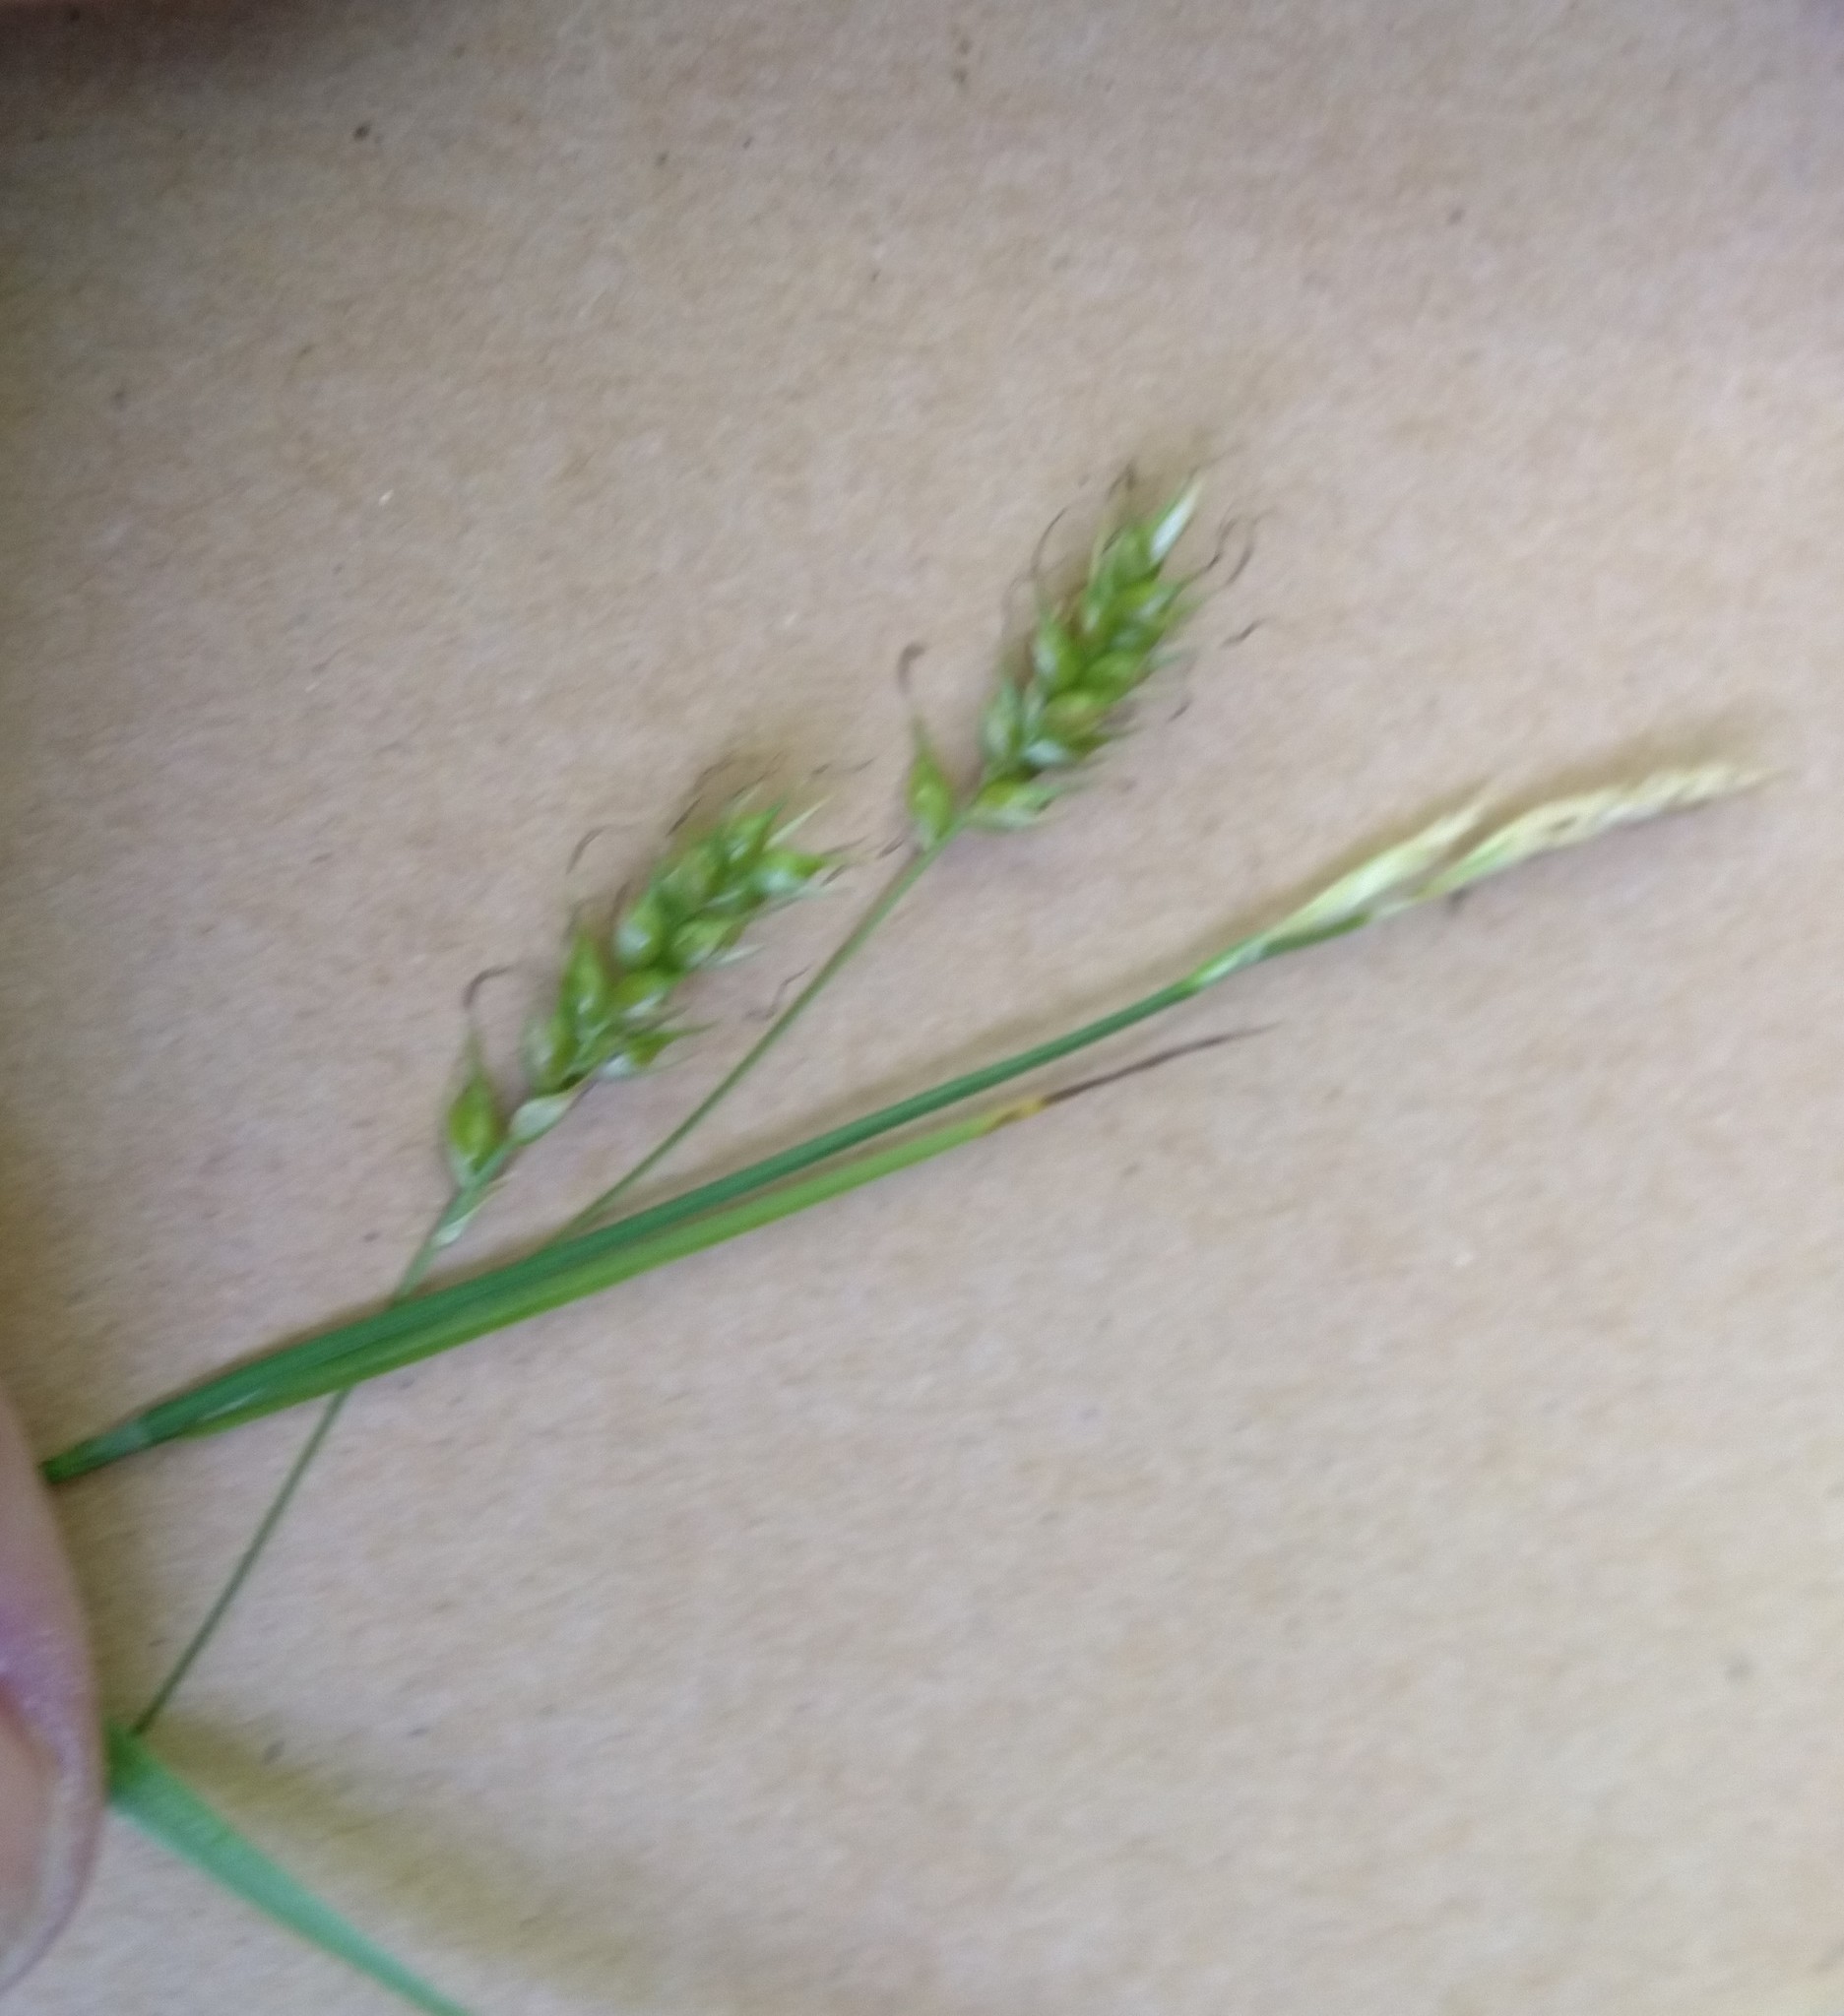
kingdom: Plantae
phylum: Tracheophyta
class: Liliopsida
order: Poales
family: Cyperaceae
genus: Carex
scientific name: Carex sprengelii
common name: Long-beaked sedge
